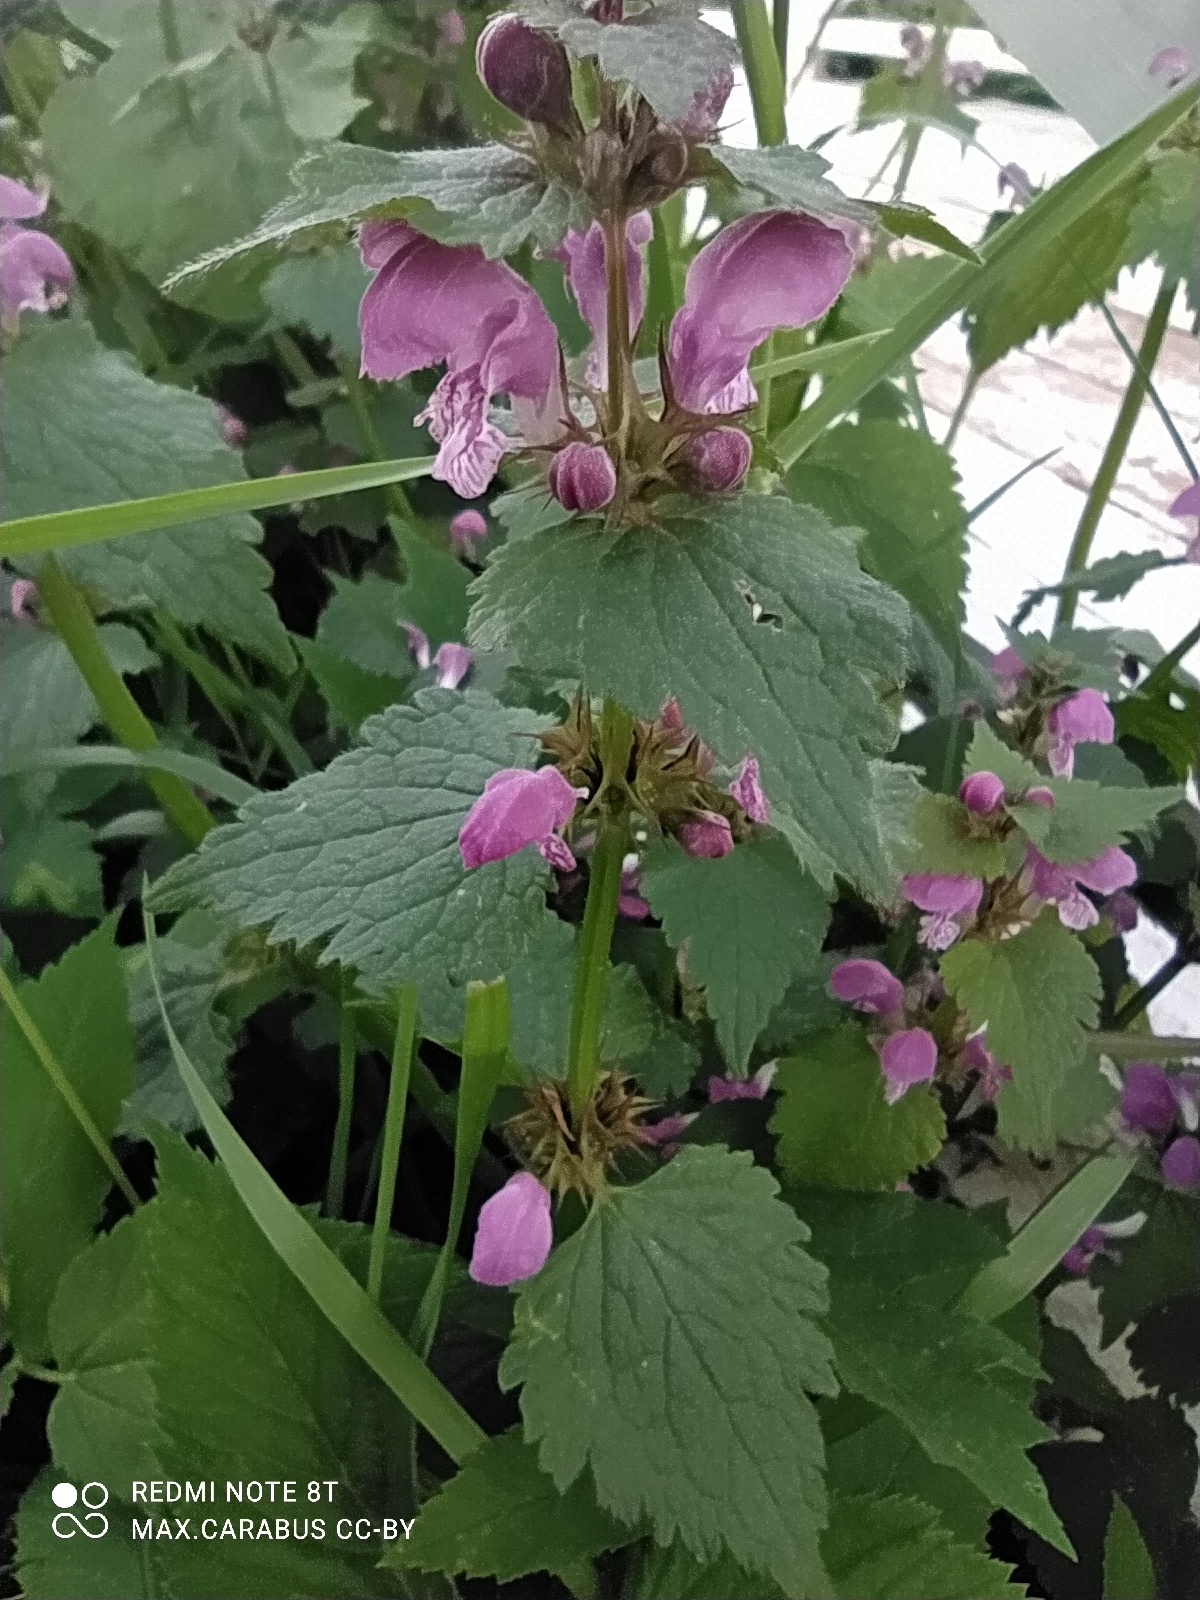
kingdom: Plantae
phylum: Tracheophyta
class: Magnoliopsida
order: Lamiales
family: Lamiaceae
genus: Lamium
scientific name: Lamium maculatum
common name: Spotted dead-nettle
